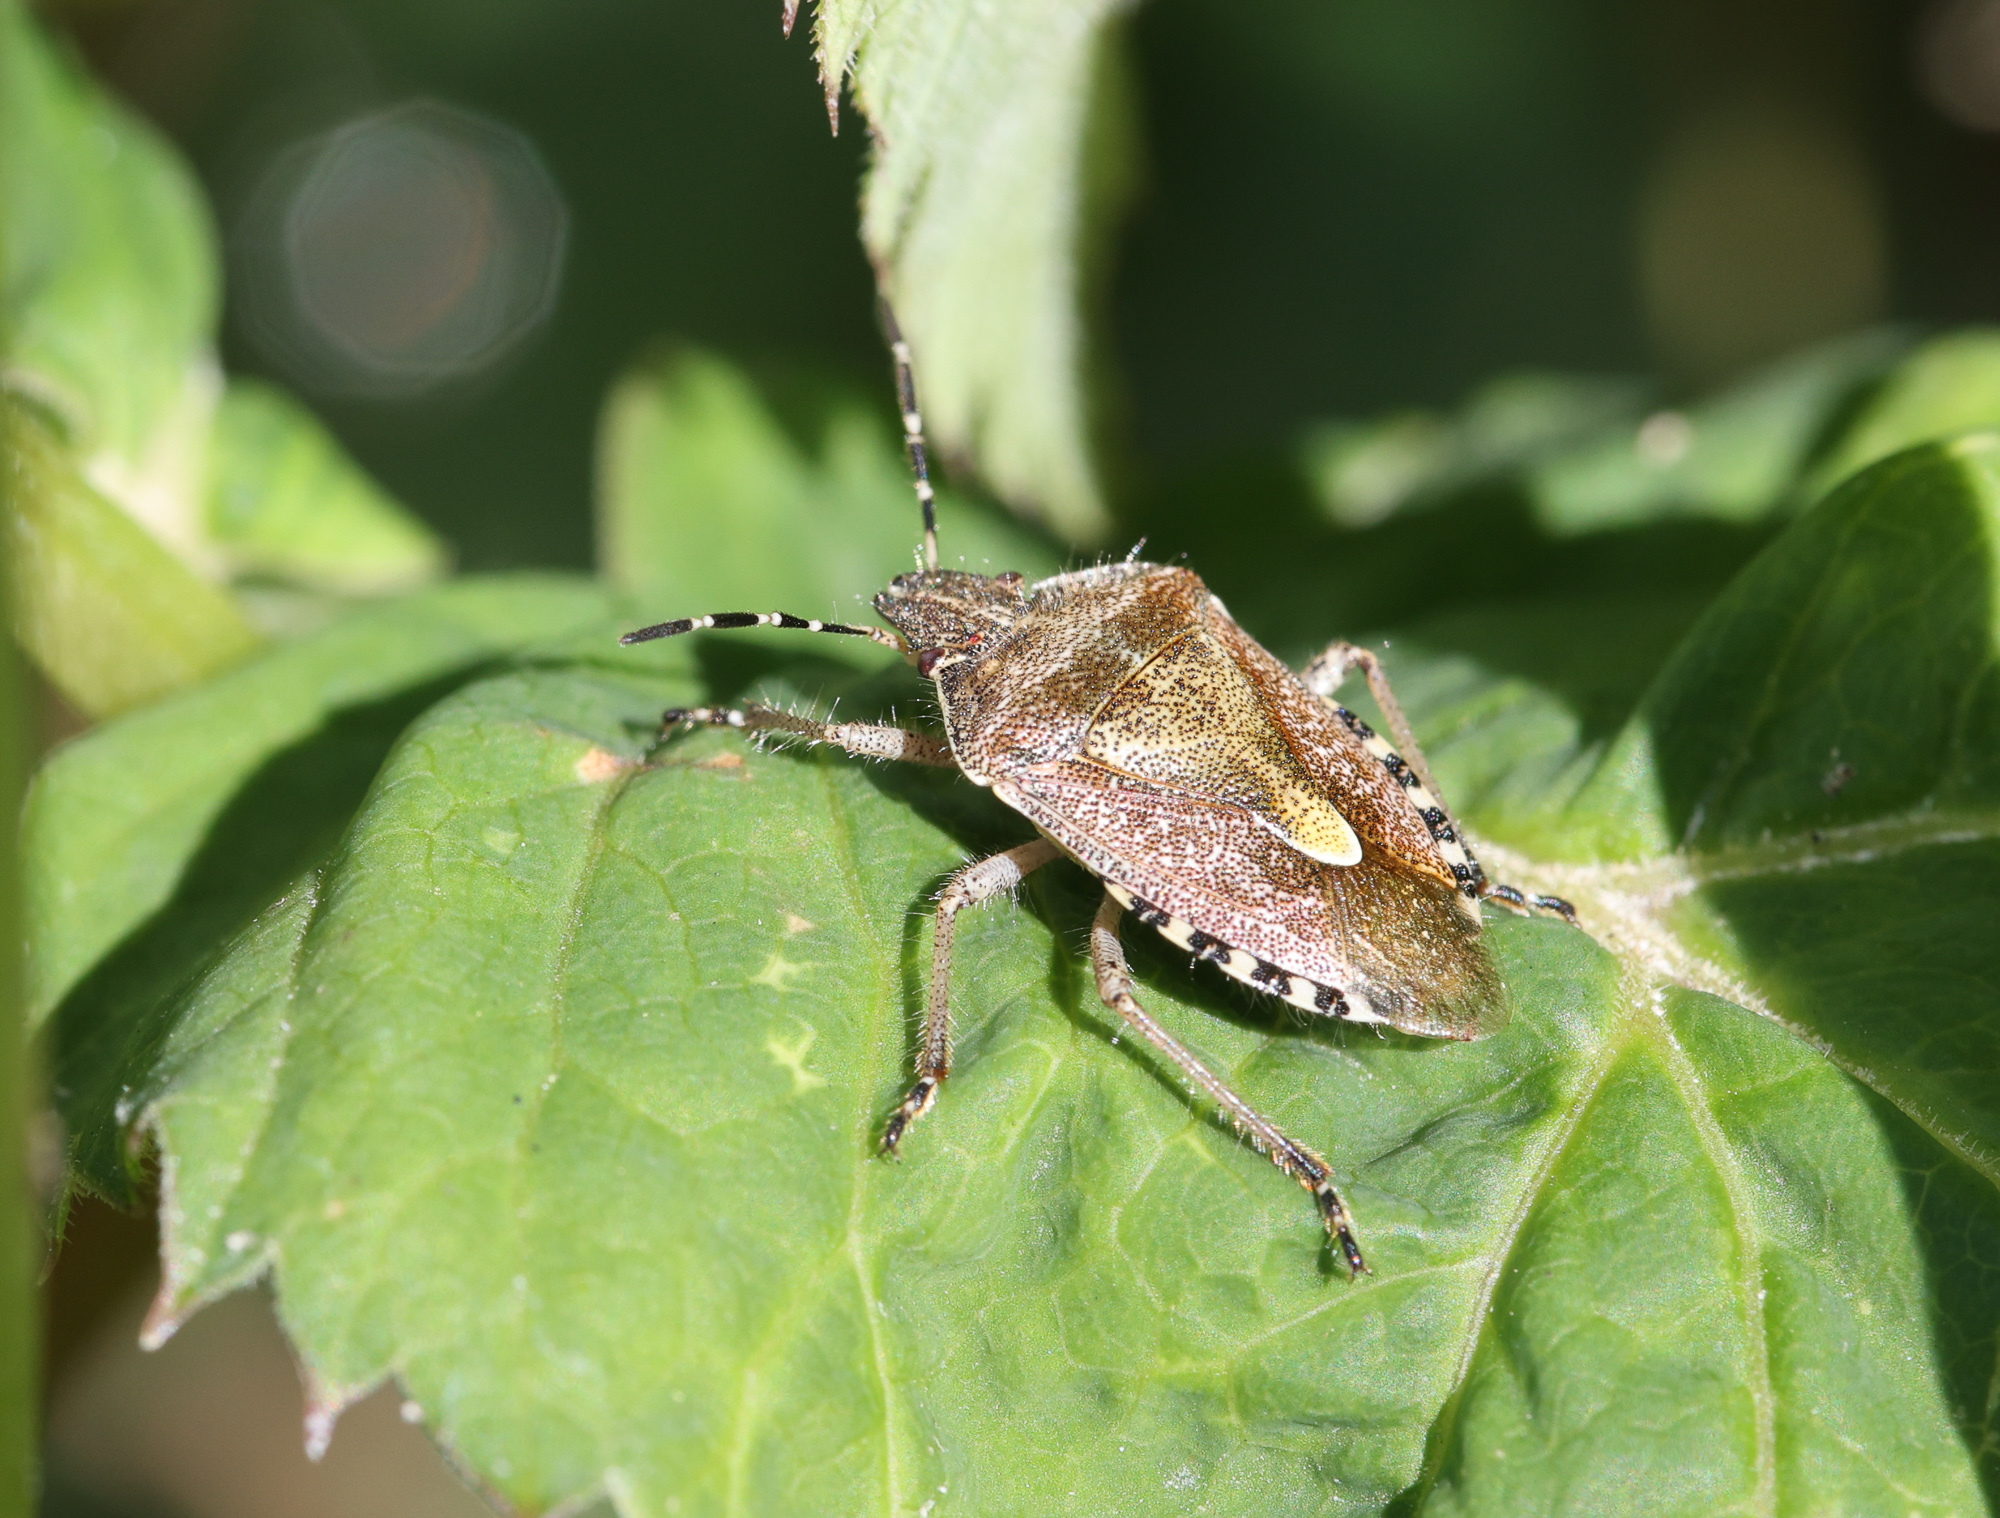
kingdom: Animalia
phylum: Arthropoda
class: Insecta
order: Hemiptera
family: Pentatomidae
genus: Dolycoris
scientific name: Dolycoris baccarum
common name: Sloe bug
